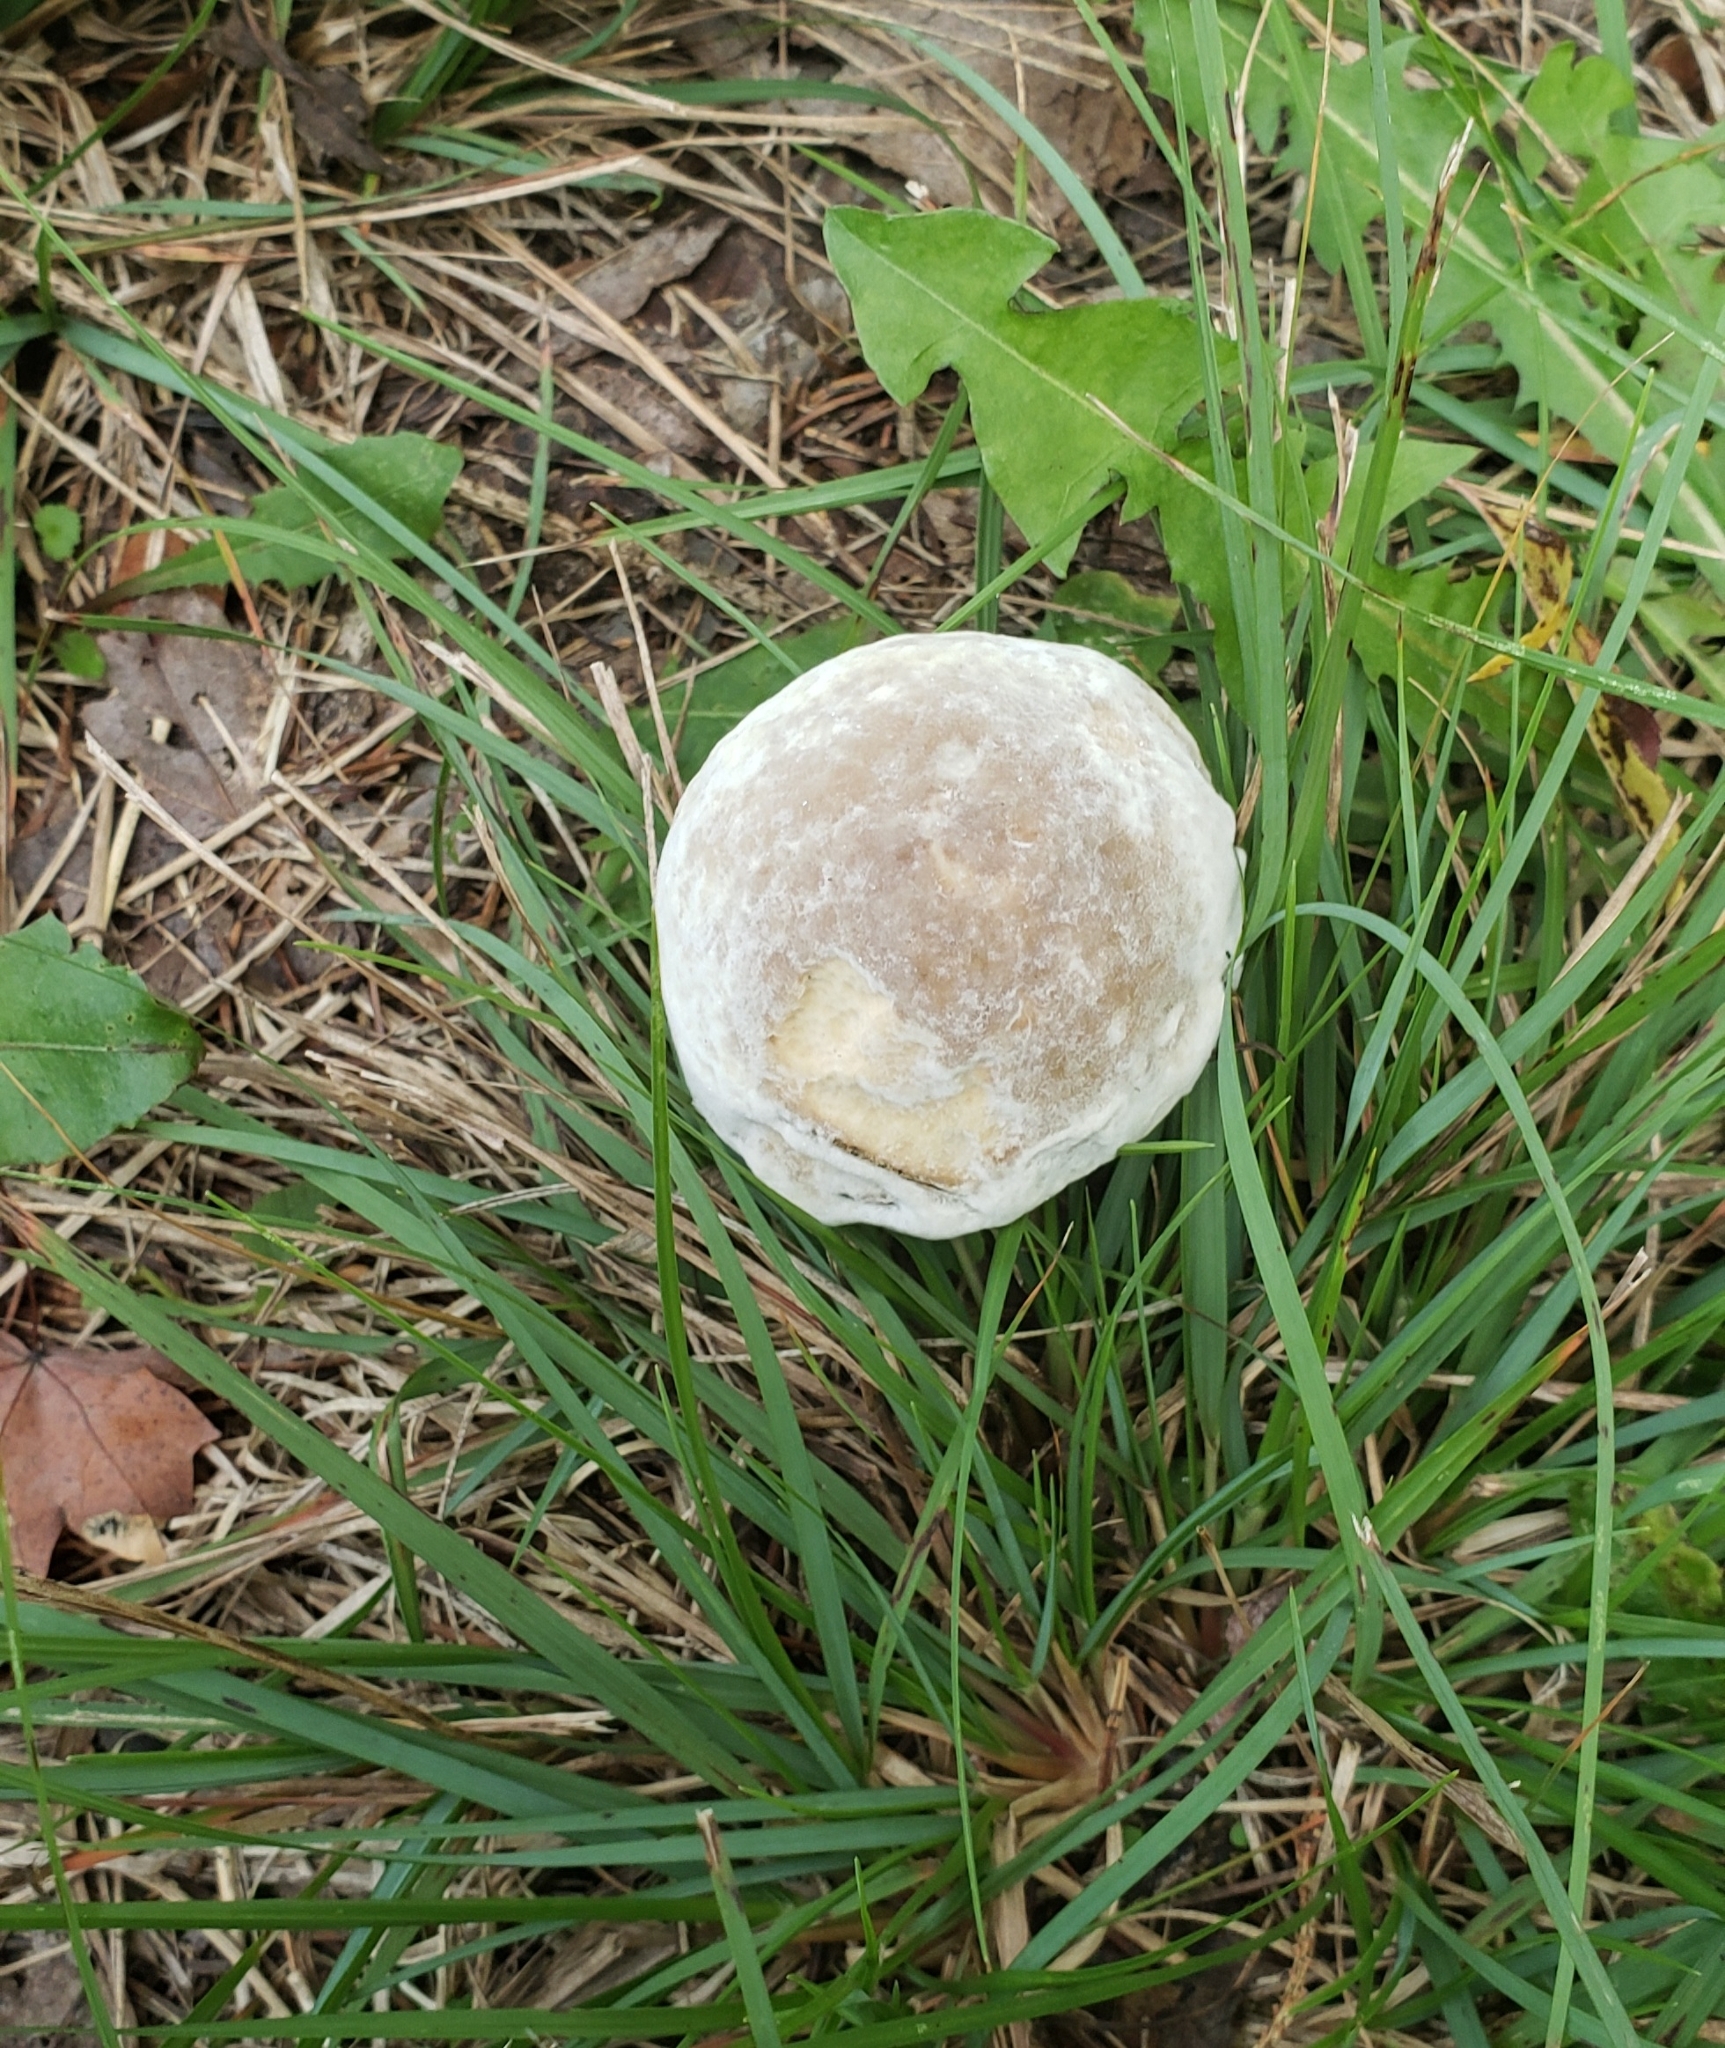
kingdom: Fungi
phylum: Ascomycota
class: Sordariomycetes
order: Hypocreales
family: Hypocreaceae
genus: Hypomyces
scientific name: Hypomyces chrysospermus
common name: Bolete mould
